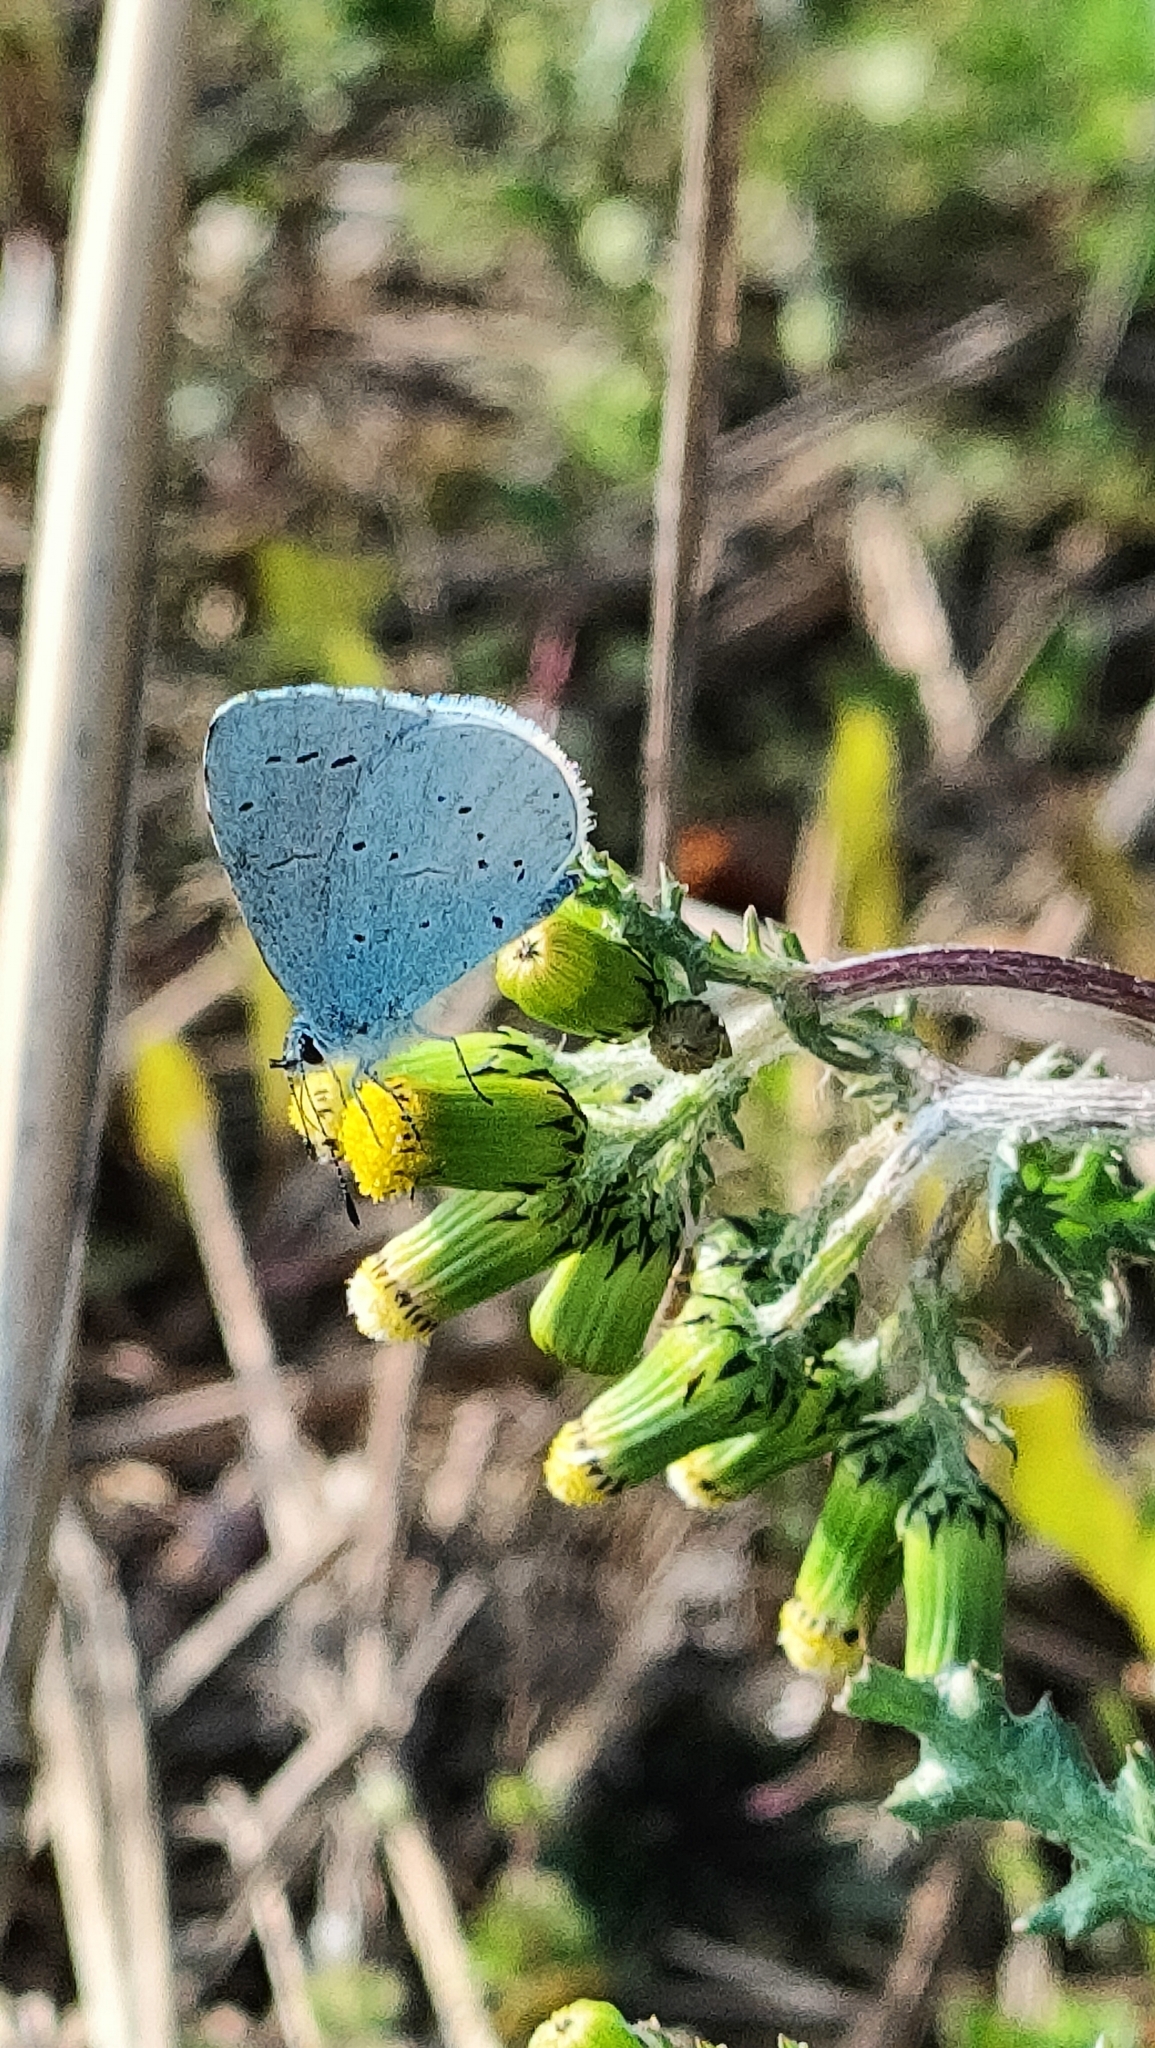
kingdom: Animalia
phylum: Arthropoda
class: Insecta
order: Lepidoptera
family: Lycaenidae
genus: Celastrina
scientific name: Celastrina argiolus
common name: Holly blue
